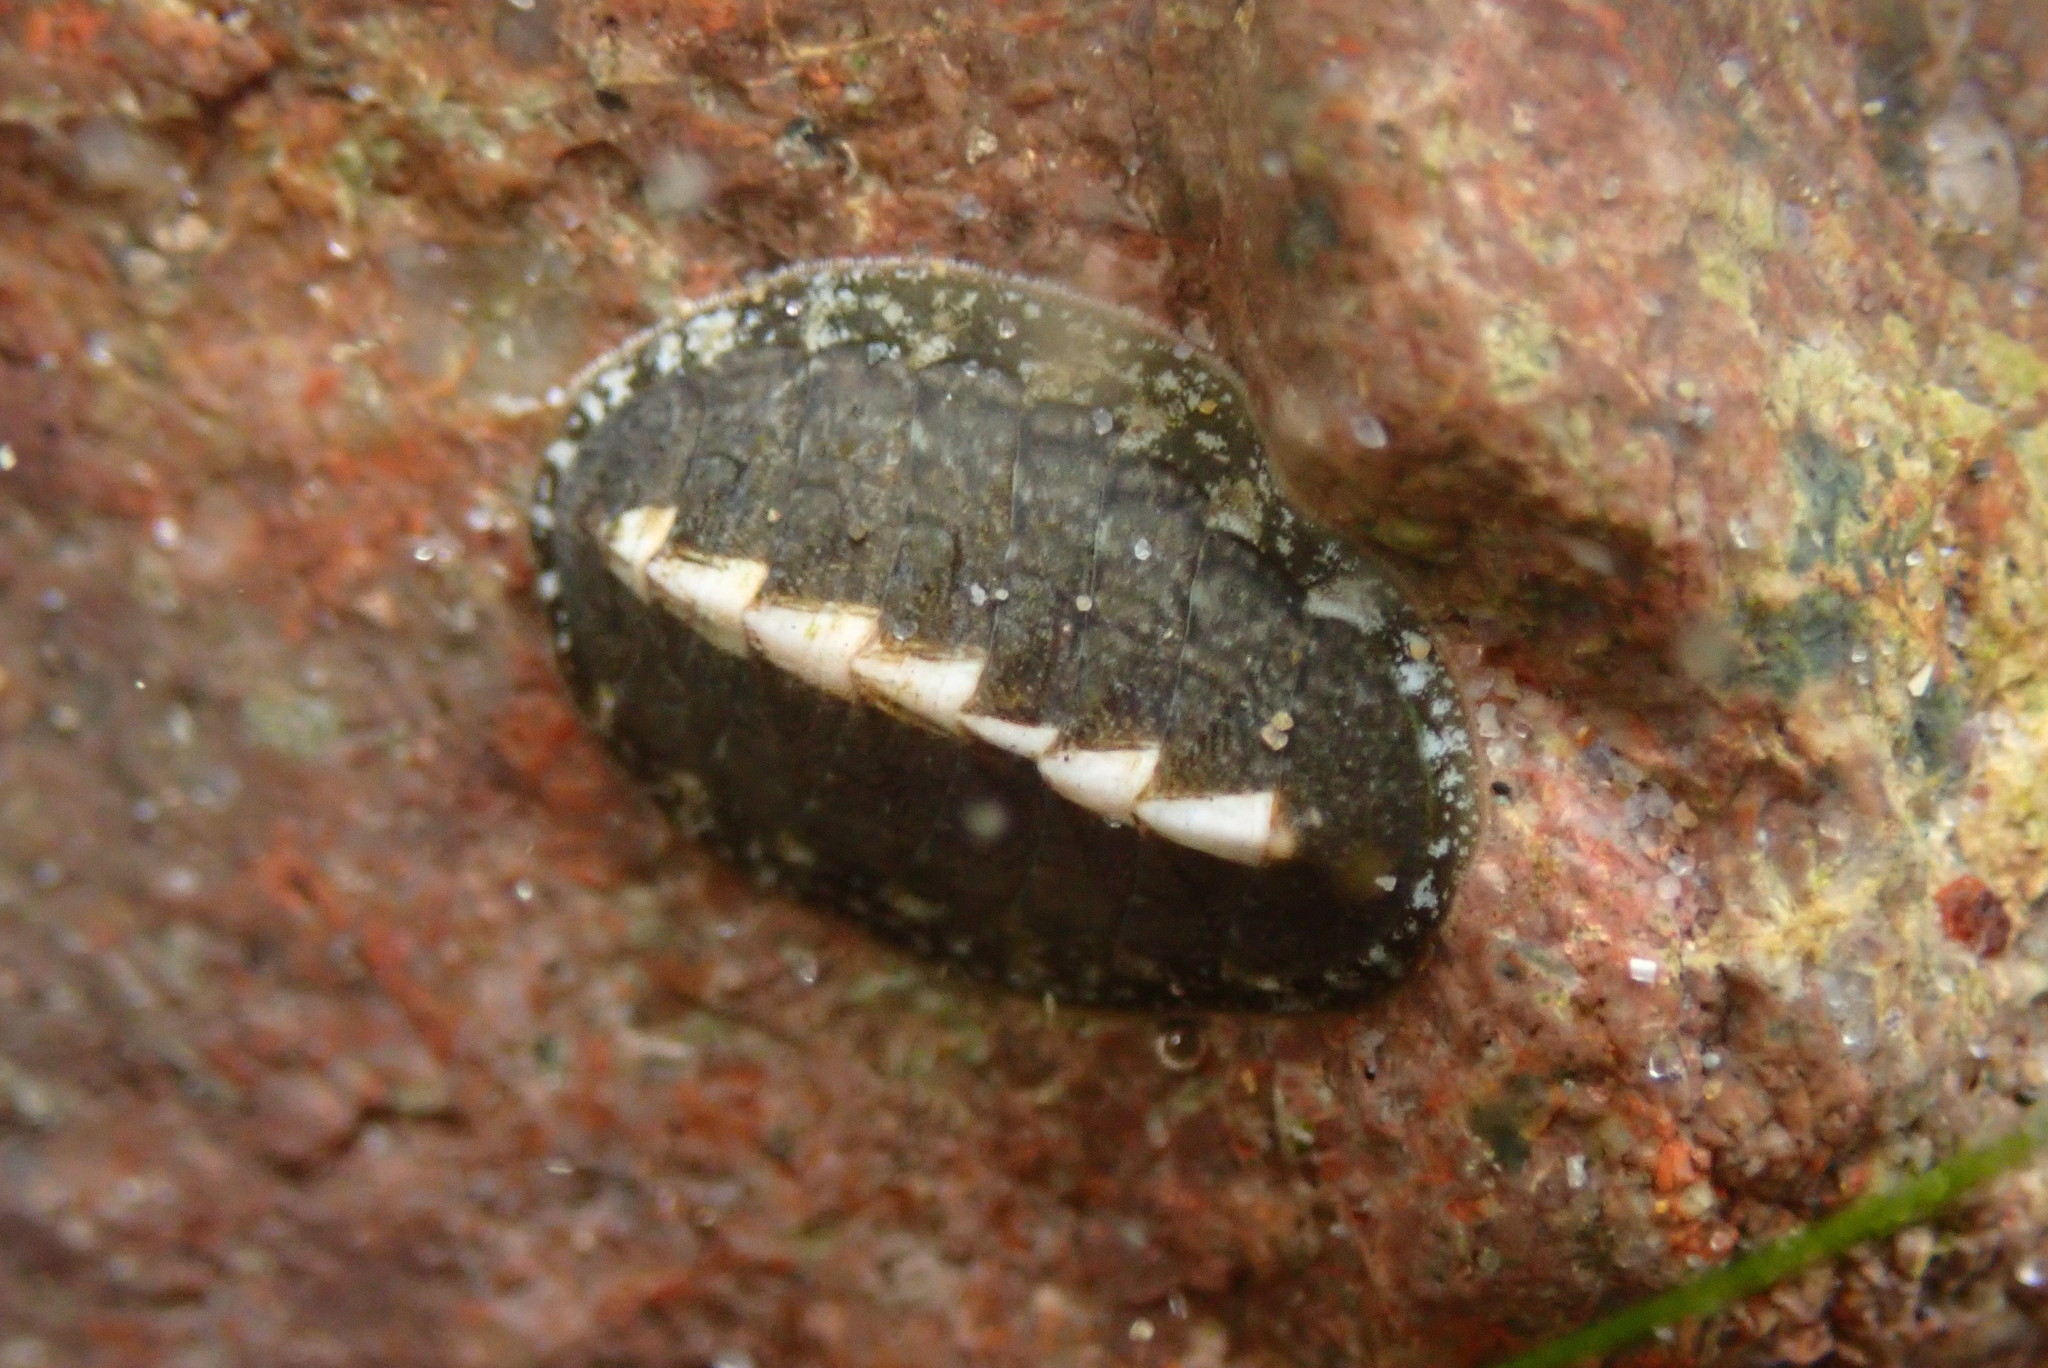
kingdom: Animalia
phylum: Mollusca
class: Polyplacophora
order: Chitonida
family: Tonicellidae
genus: Cyanoplax
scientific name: Cyanoplax keepiana
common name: Keep's chiton
